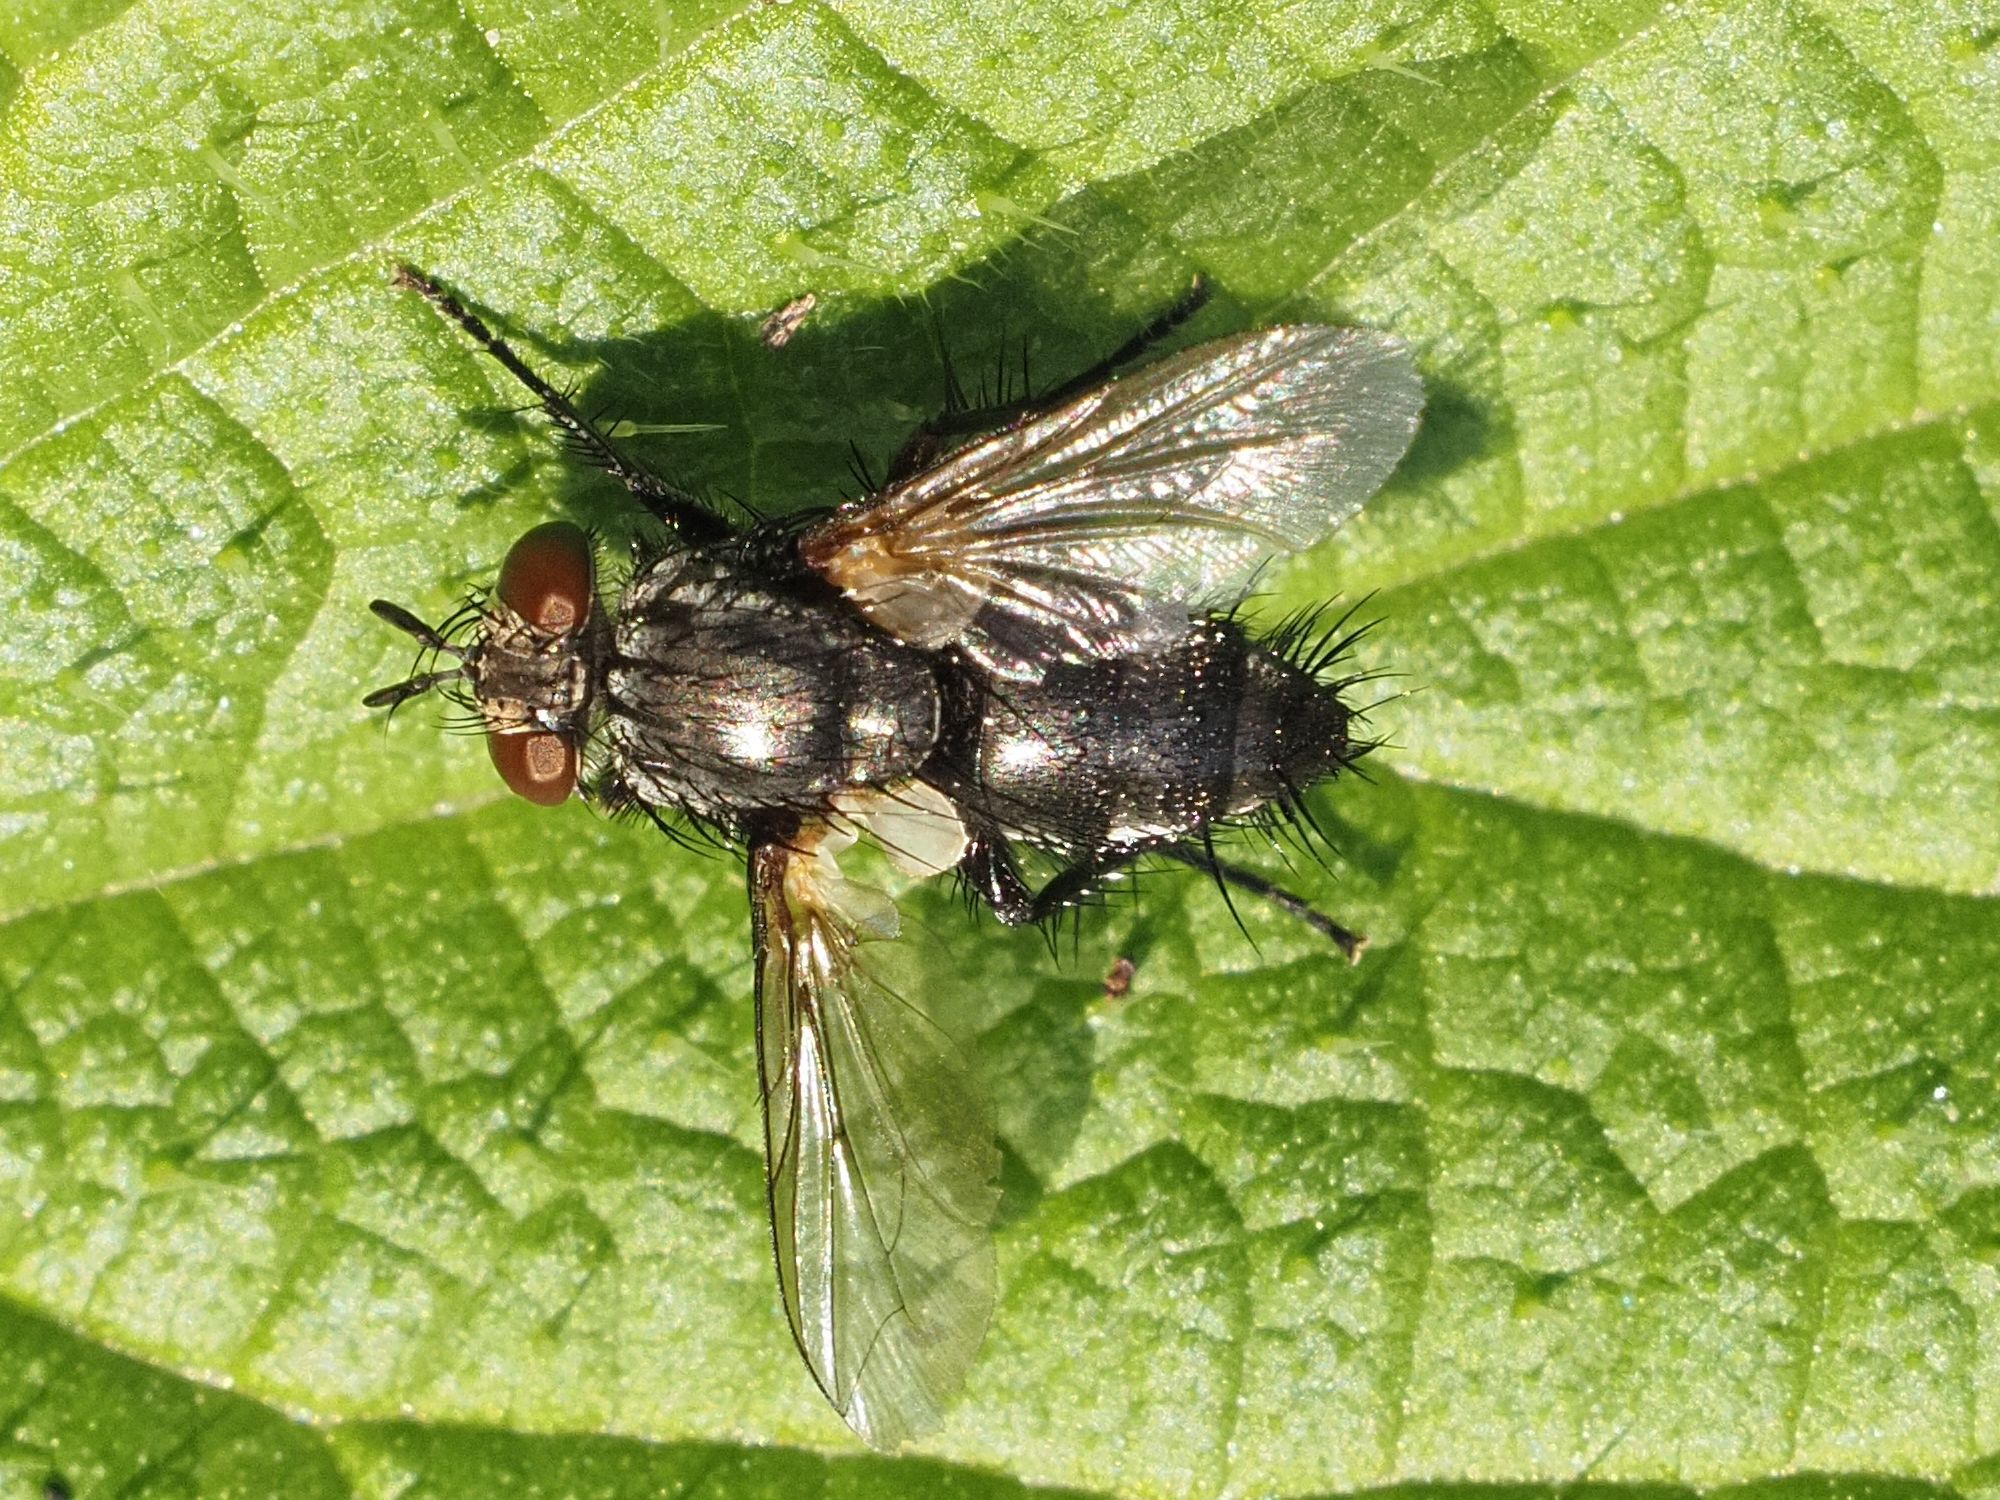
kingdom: Animalia
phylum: Arthropoda
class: Insecta
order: Diptera
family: Tachinidae
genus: Voria
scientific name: Voria ruralis
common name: Parasitic fly
